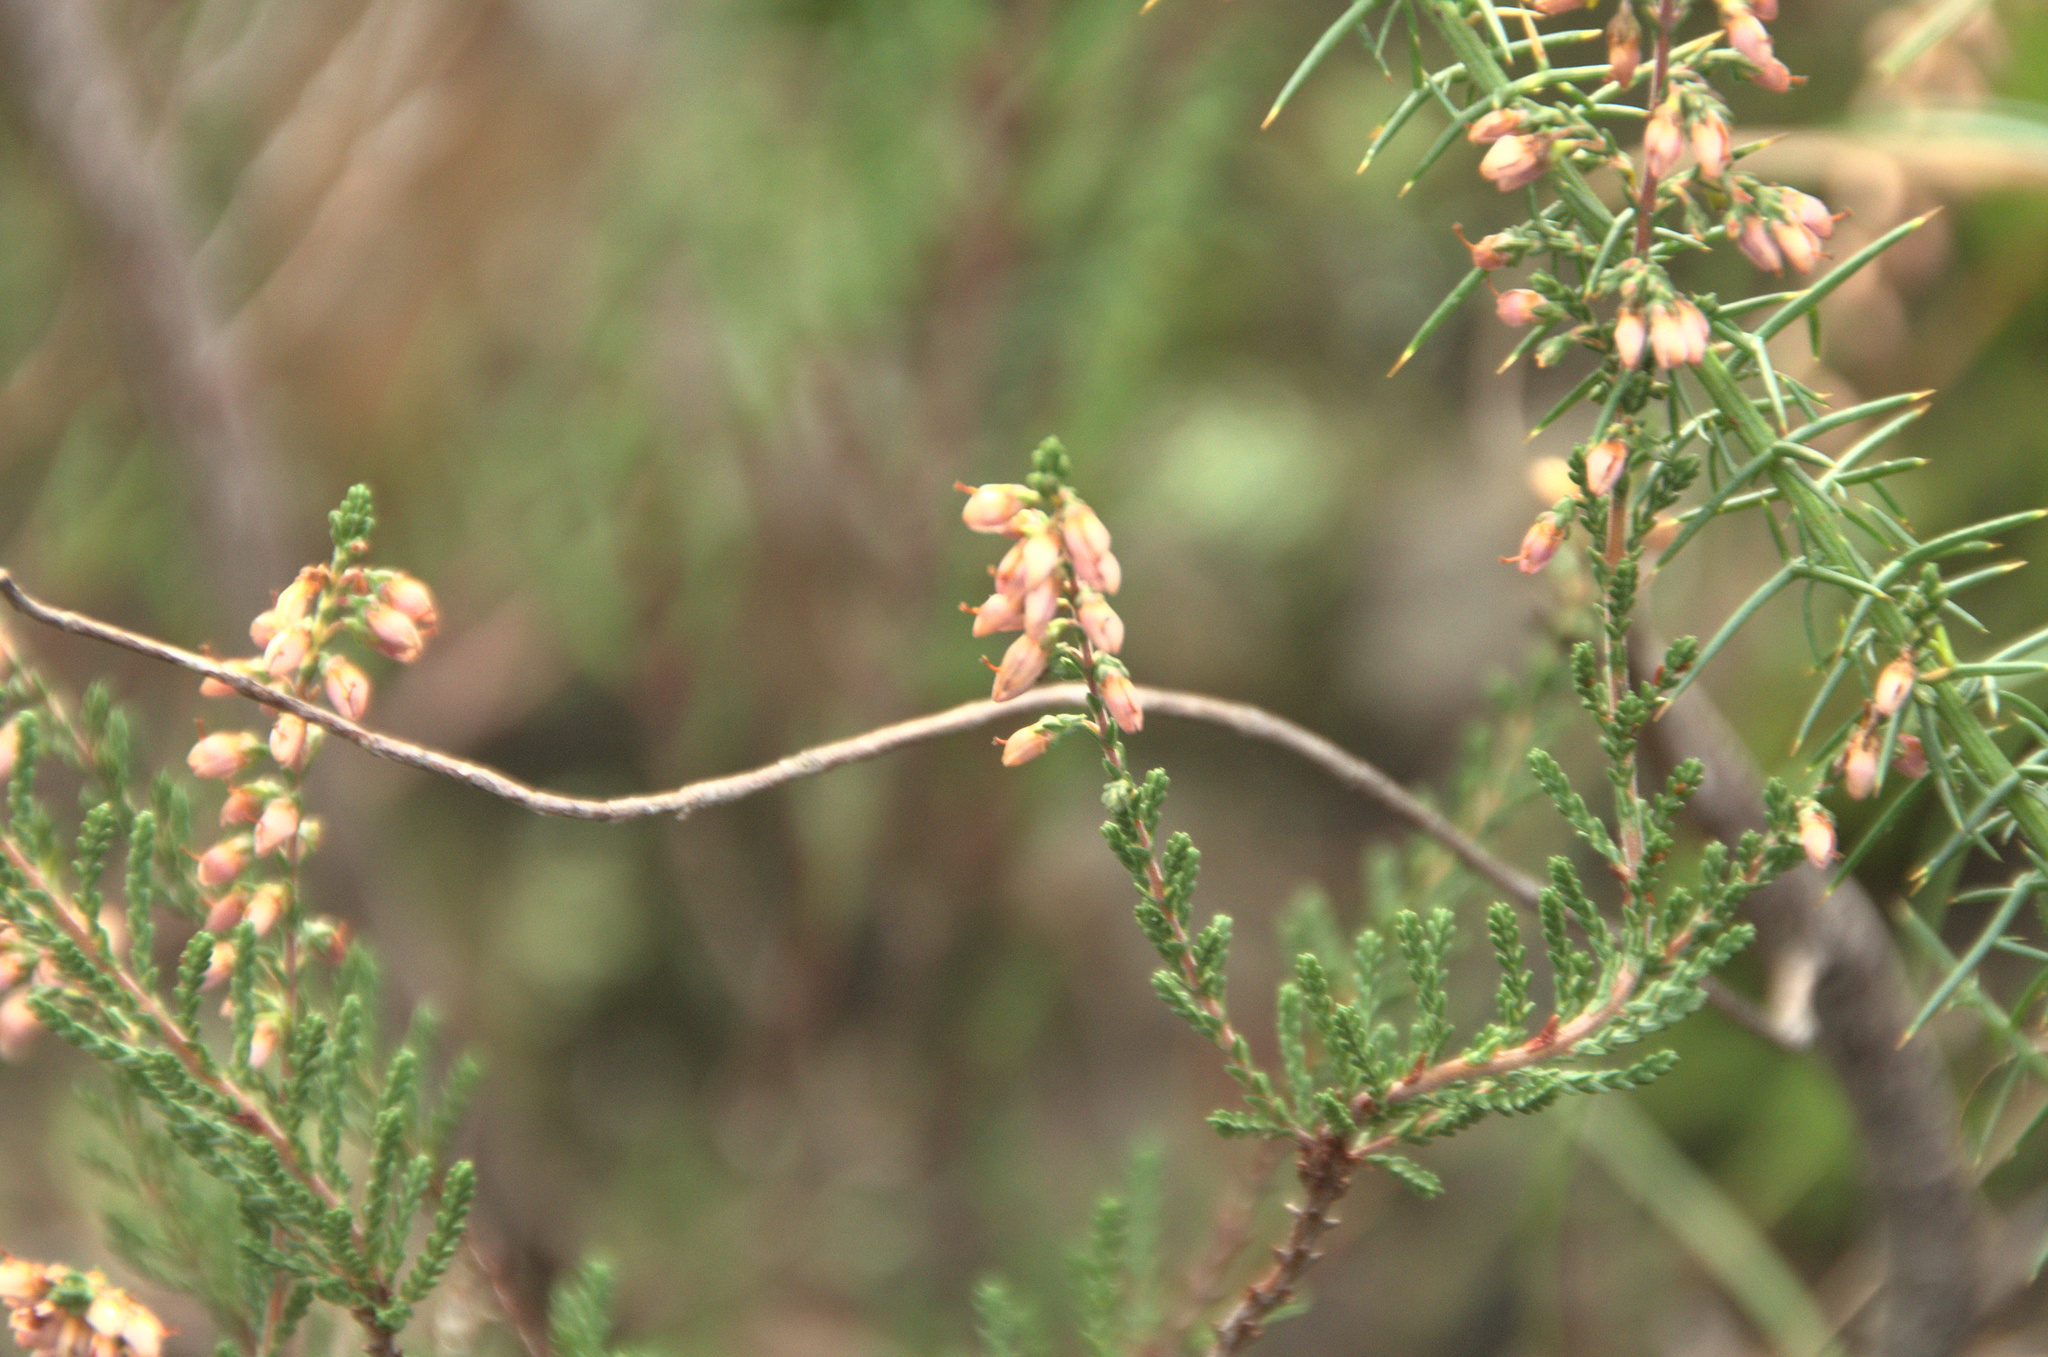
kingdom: Plantae
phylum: Tracheophyta
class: Magnoliopsida
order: Ericales
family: Ericaceae
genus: Calluna
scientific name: Calluna vulgaris
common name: Heather
